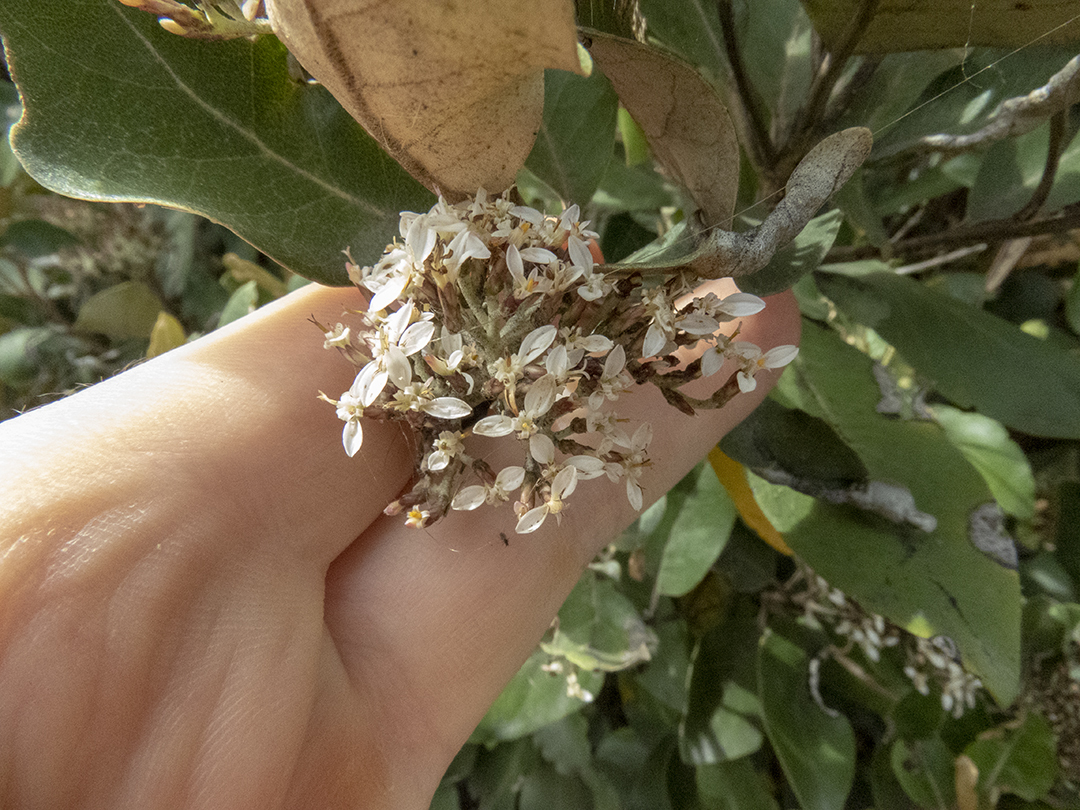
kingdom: Plantae
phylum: Tracheophyta
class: Magnoliopsida
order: Asterales
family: Asteraceae
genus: Olearia
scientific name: Olearia avicenniifolia
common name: Mangrove-leaf daisybush
